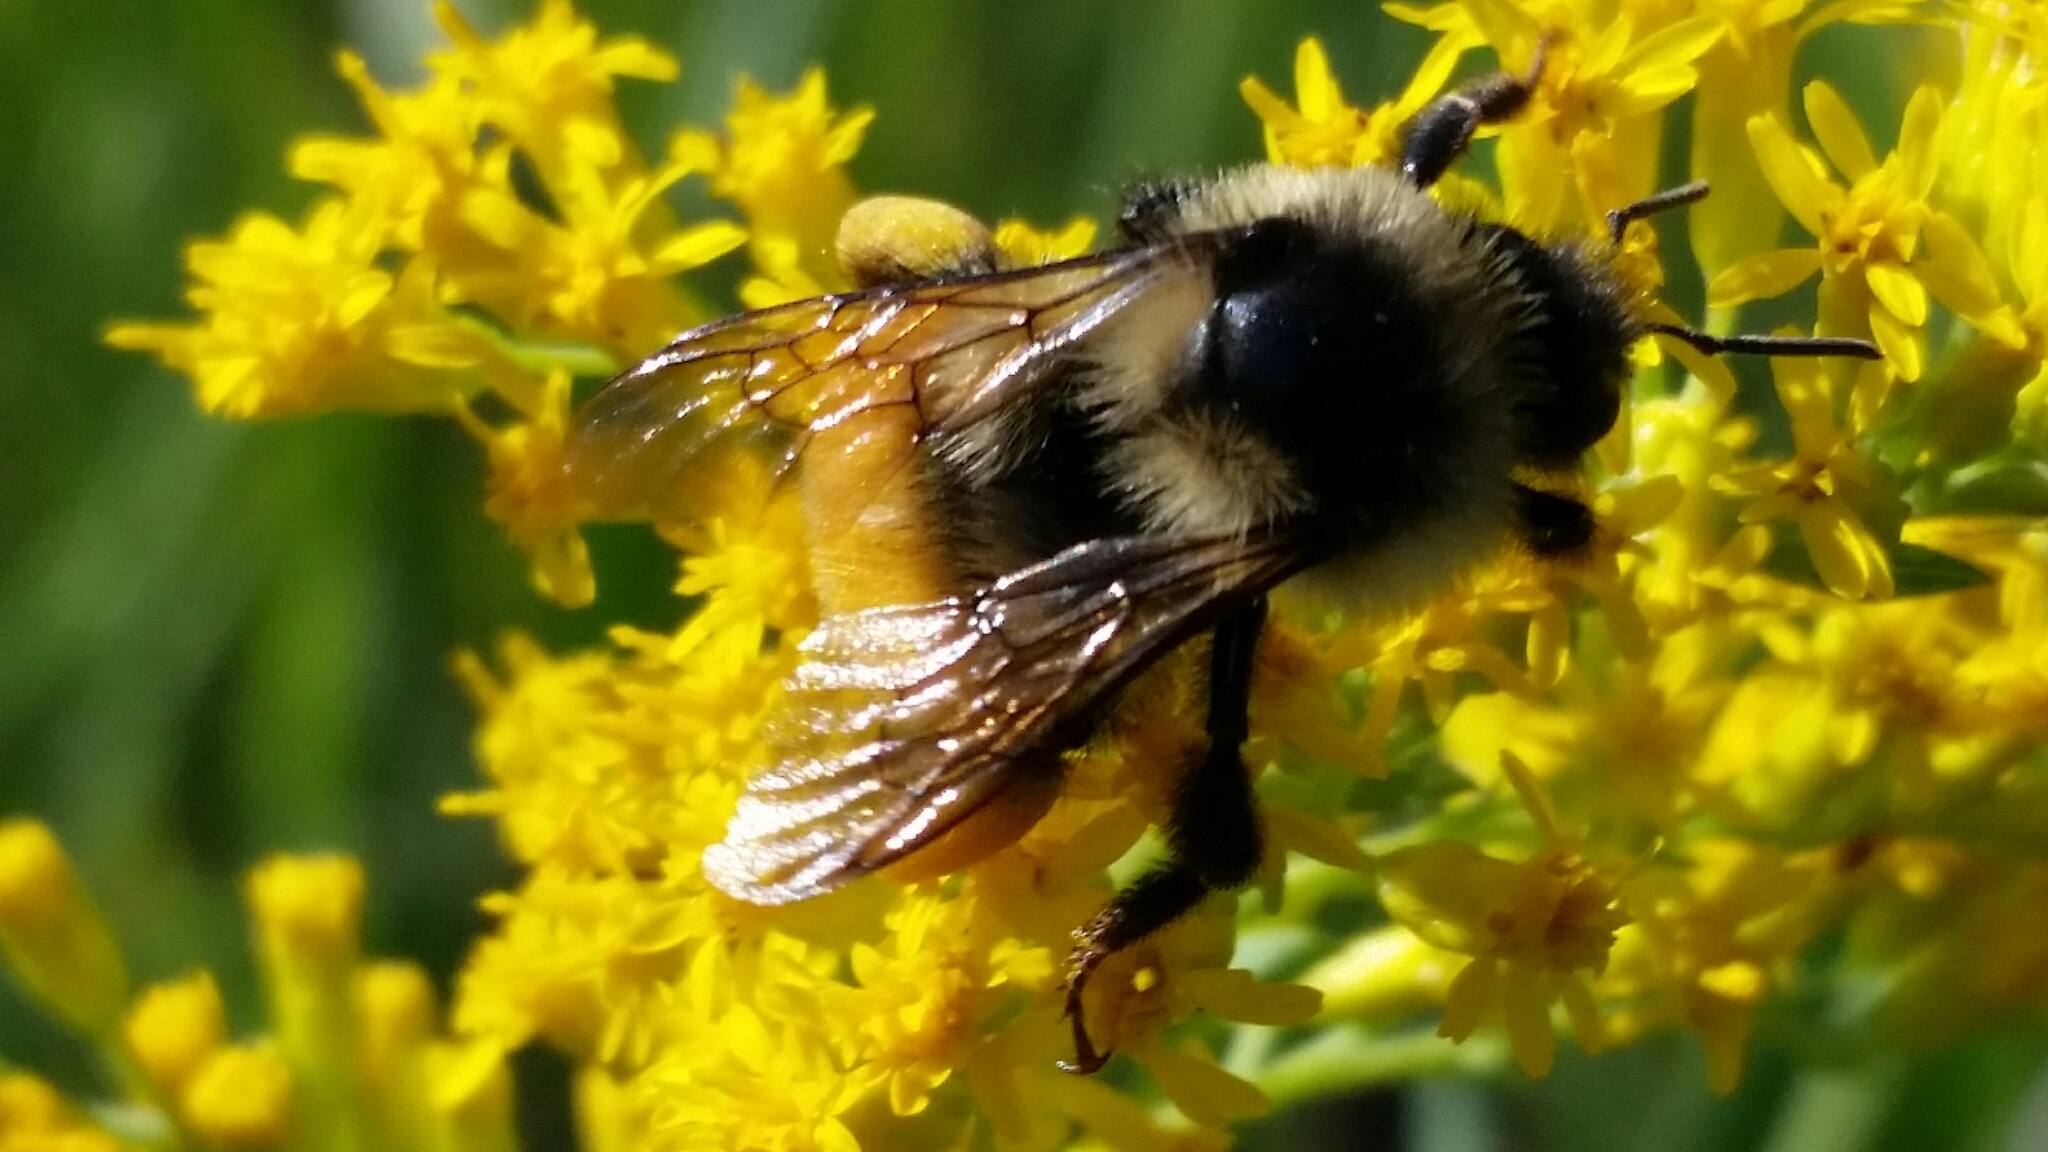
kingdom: Animalia
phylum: Arthropoda
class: Insecta
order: Hymenoptera
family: Apidae
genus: Bombus
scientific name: Bombus ternarius
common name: Tri-colored bumble bee
